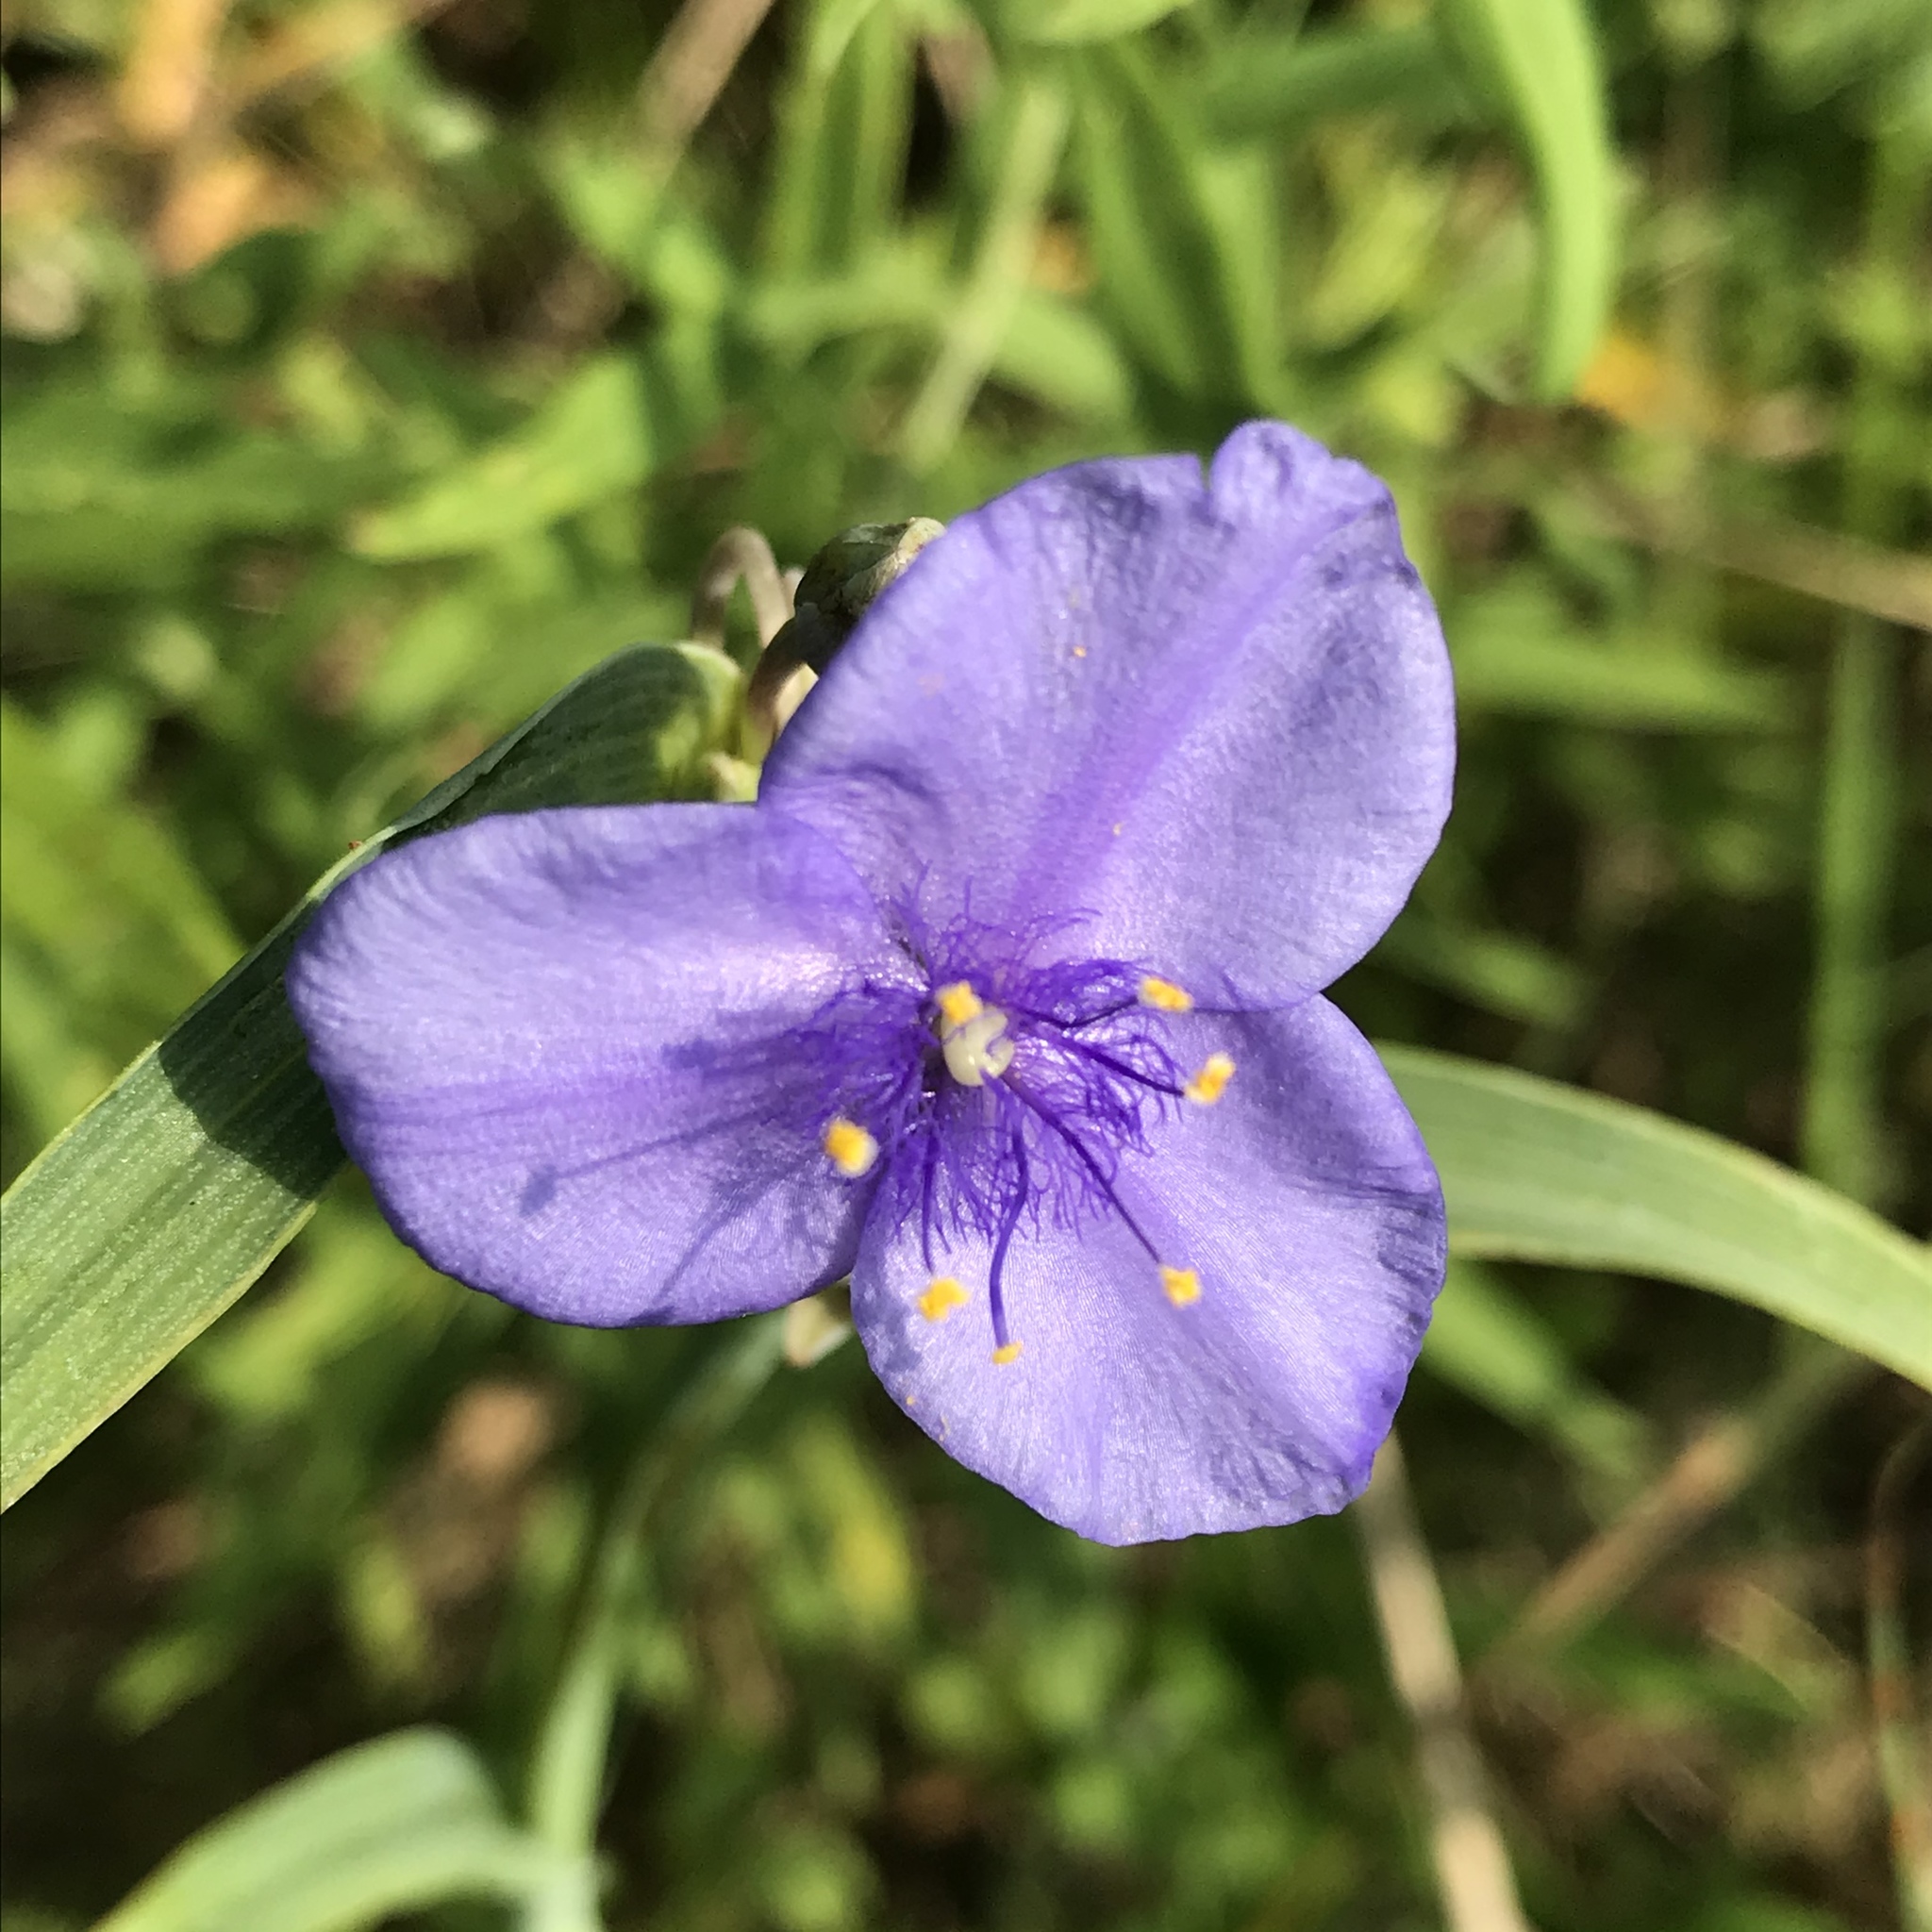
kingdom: Plantae
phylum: Tracheophyta
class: Liliopsida
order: Commelinales
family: Commelinaceae
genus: Tradescantia
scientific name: Tradescantia ohiensis
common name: Ohio spiderwort
